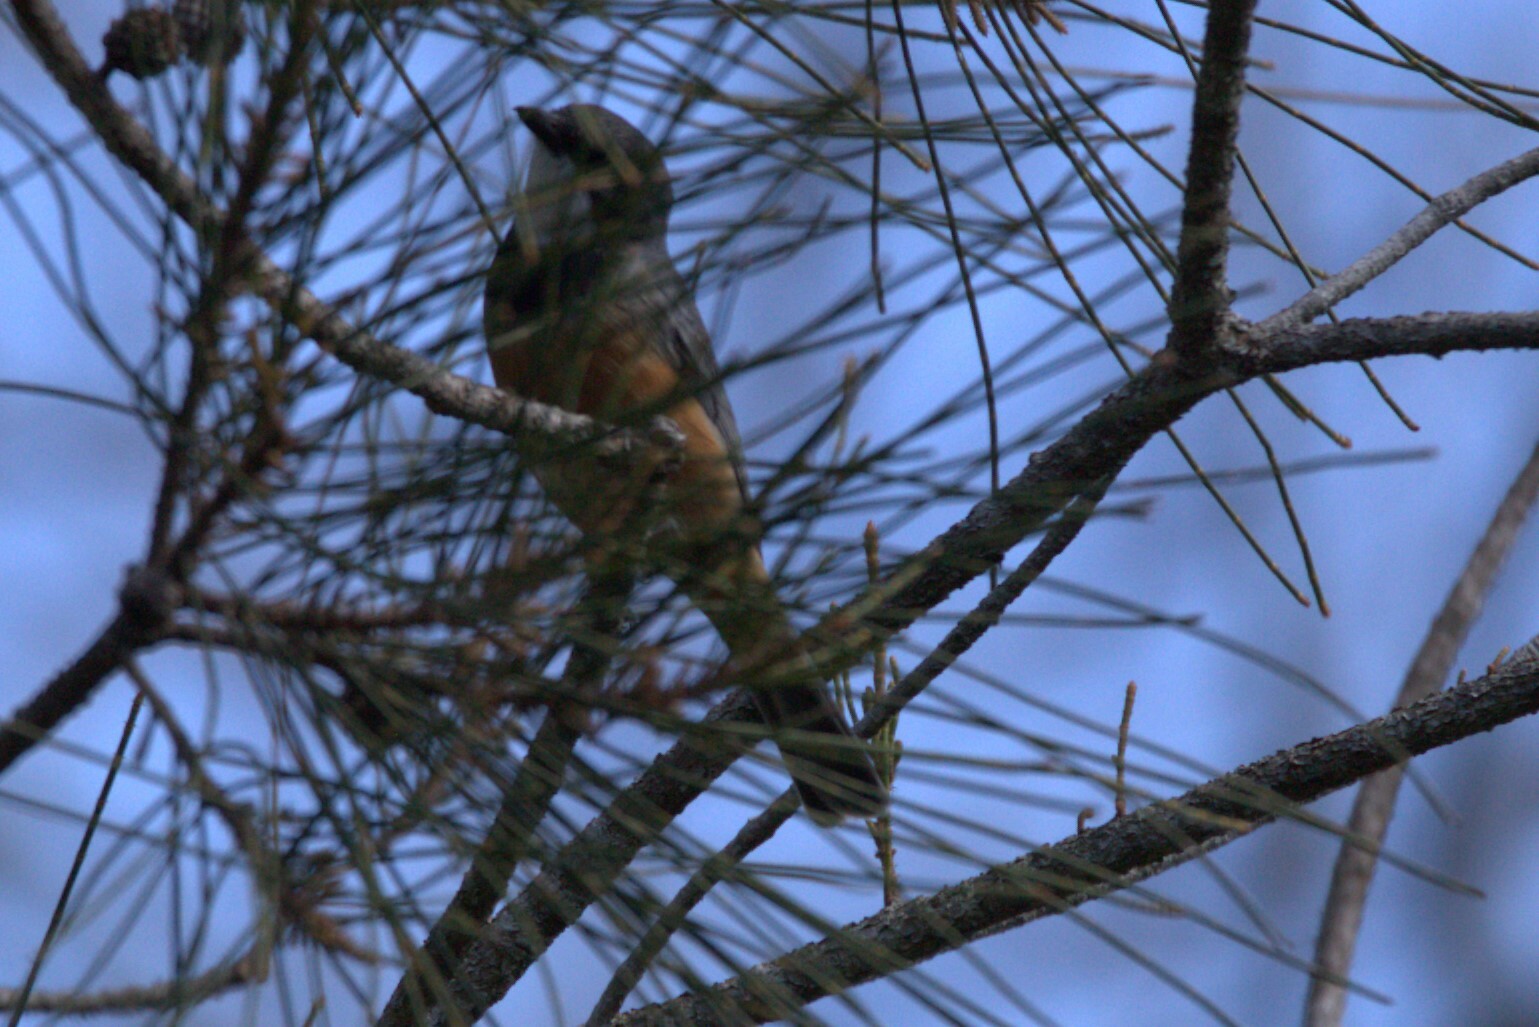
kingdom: Animalia
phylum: Chordata
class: Aves
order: Passeriformes
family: Pachycephalidae
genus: Pachycephala
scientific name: Pachycephala rufiventris
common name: Rufous whistler
